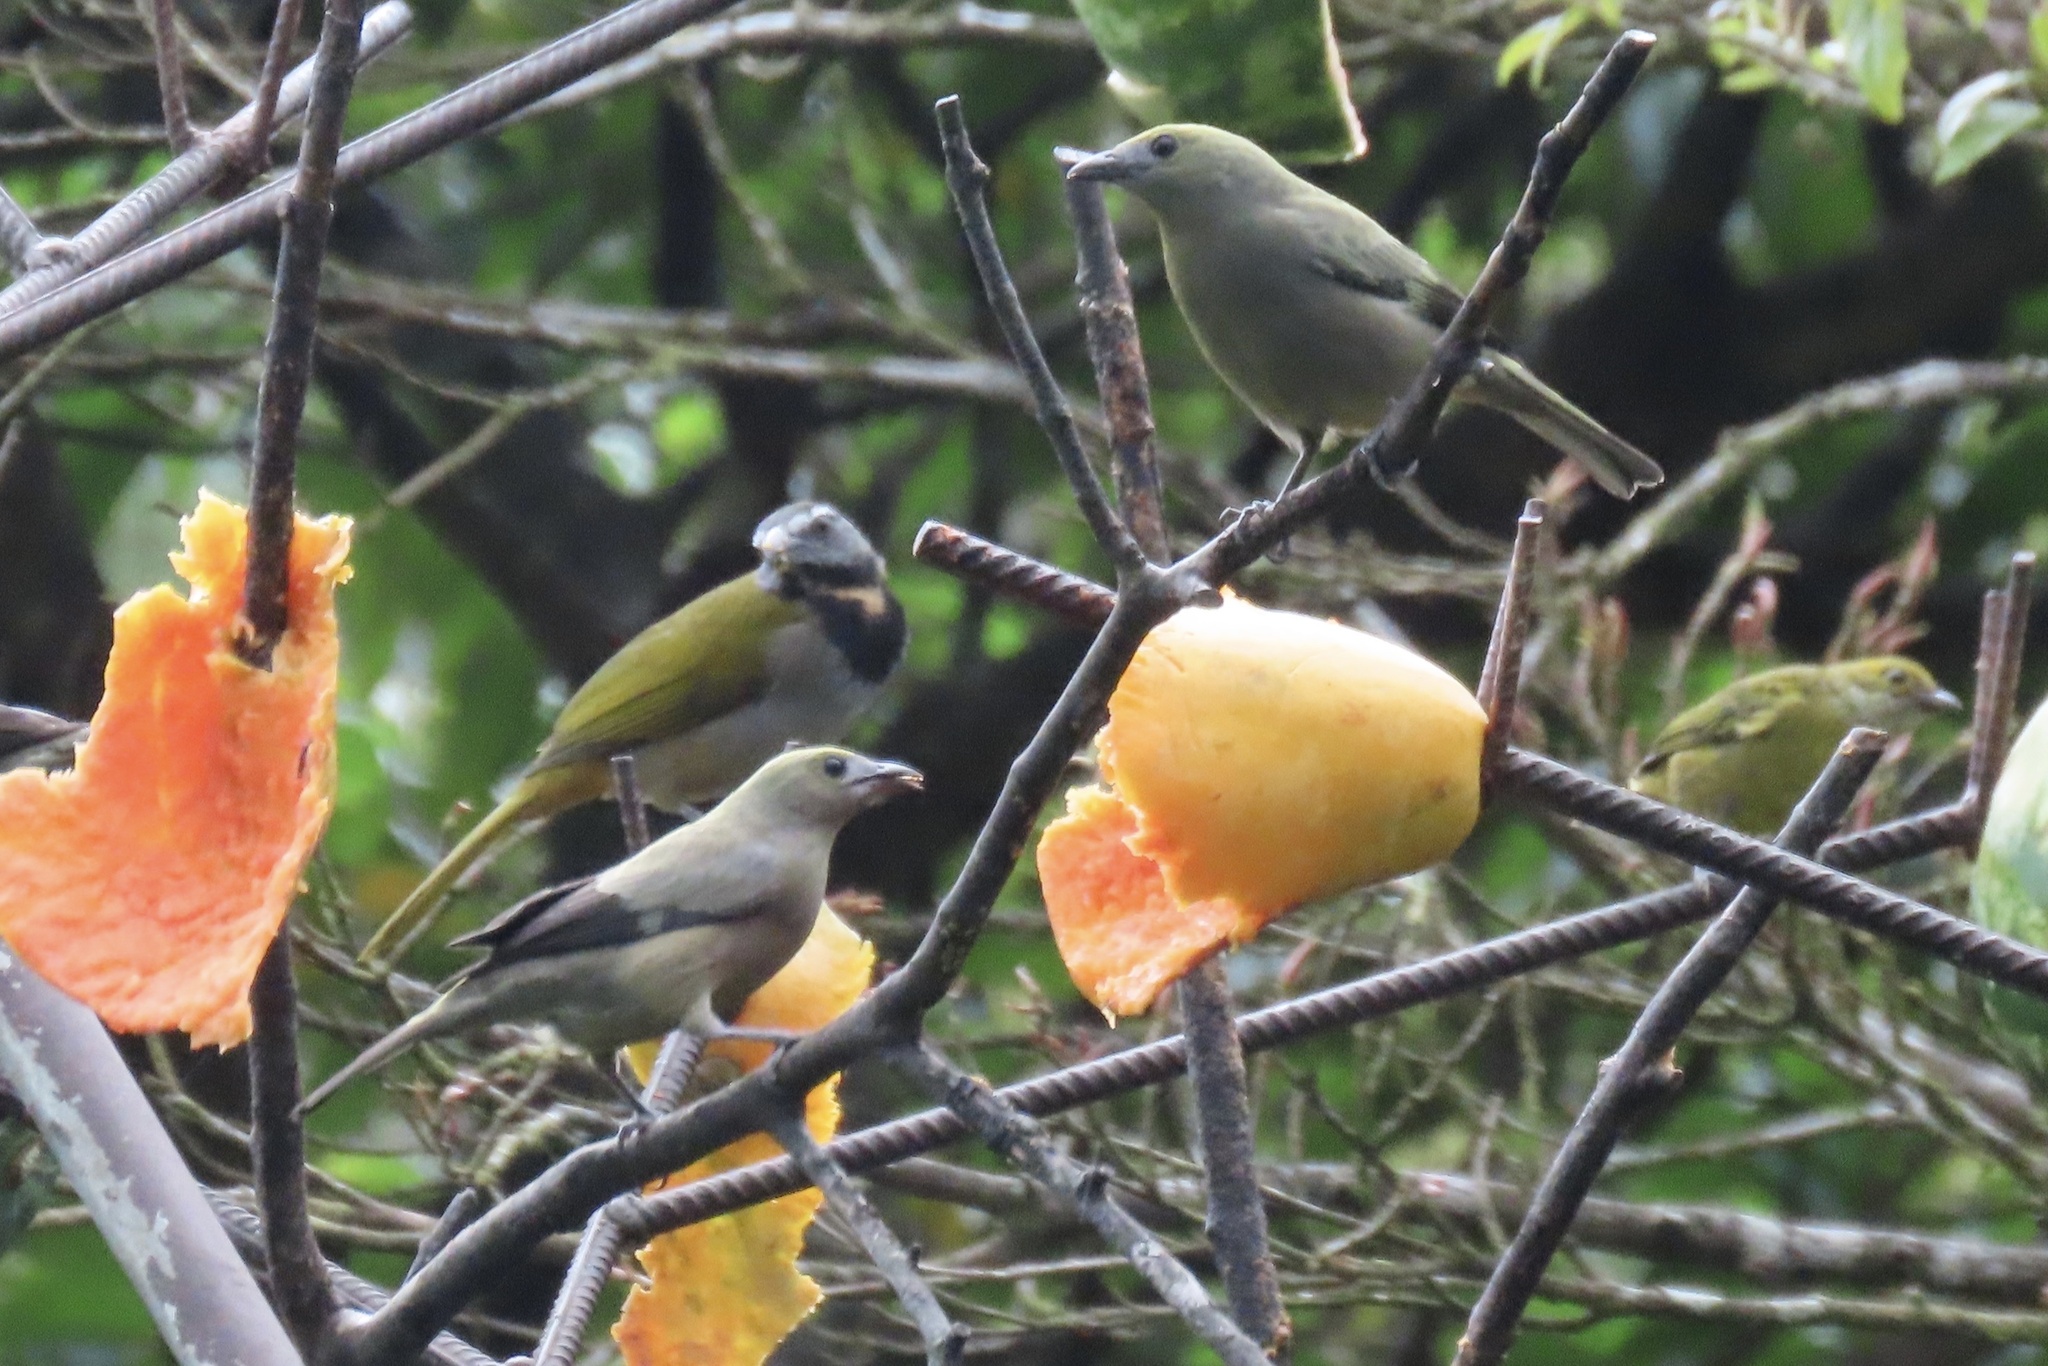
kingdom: Animalia
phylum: Chordata
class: Aves
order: Passeriformes
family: Thraupidae
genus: Thraupis
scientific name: Thraupis palmarum
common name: Palm tanager
